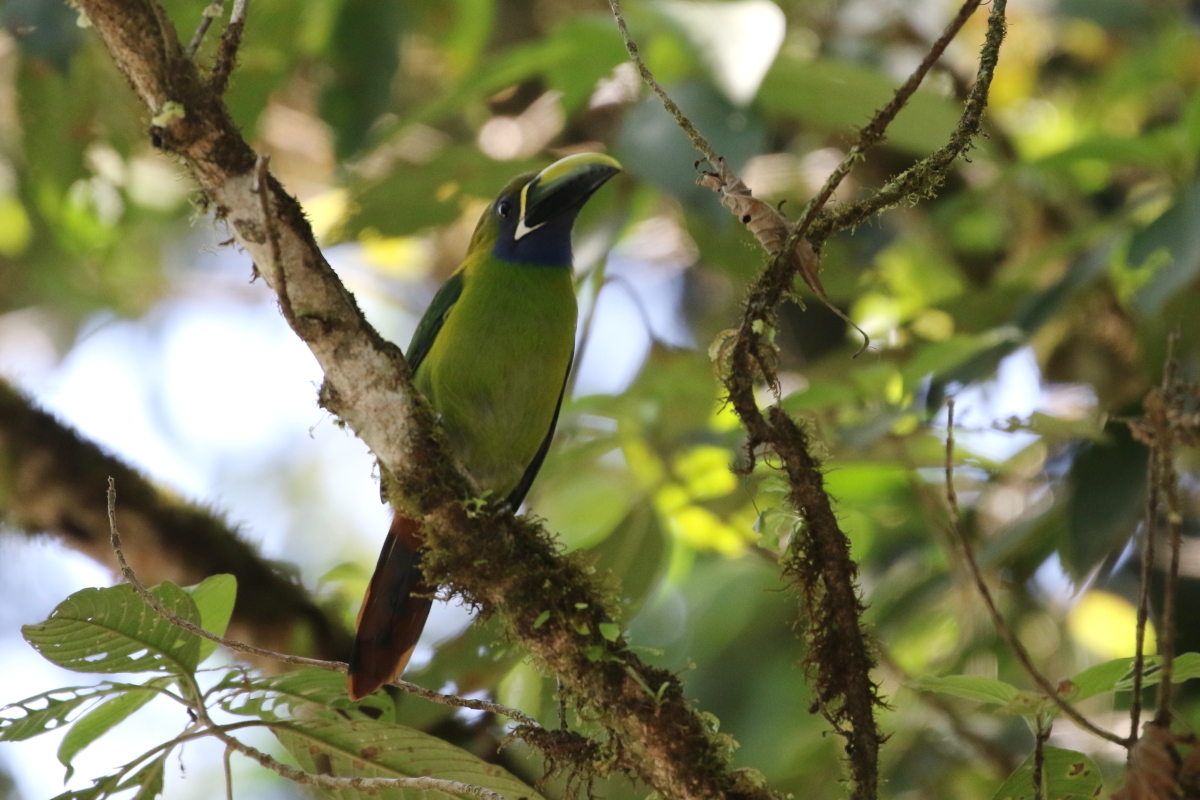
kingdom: Animalia
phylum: Chordata
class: Aves
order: Piciformes
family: Ramphastidae
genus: Aulacorhynchus
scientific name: Aulacorhynchus prasinus
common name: Emerald toucanet
